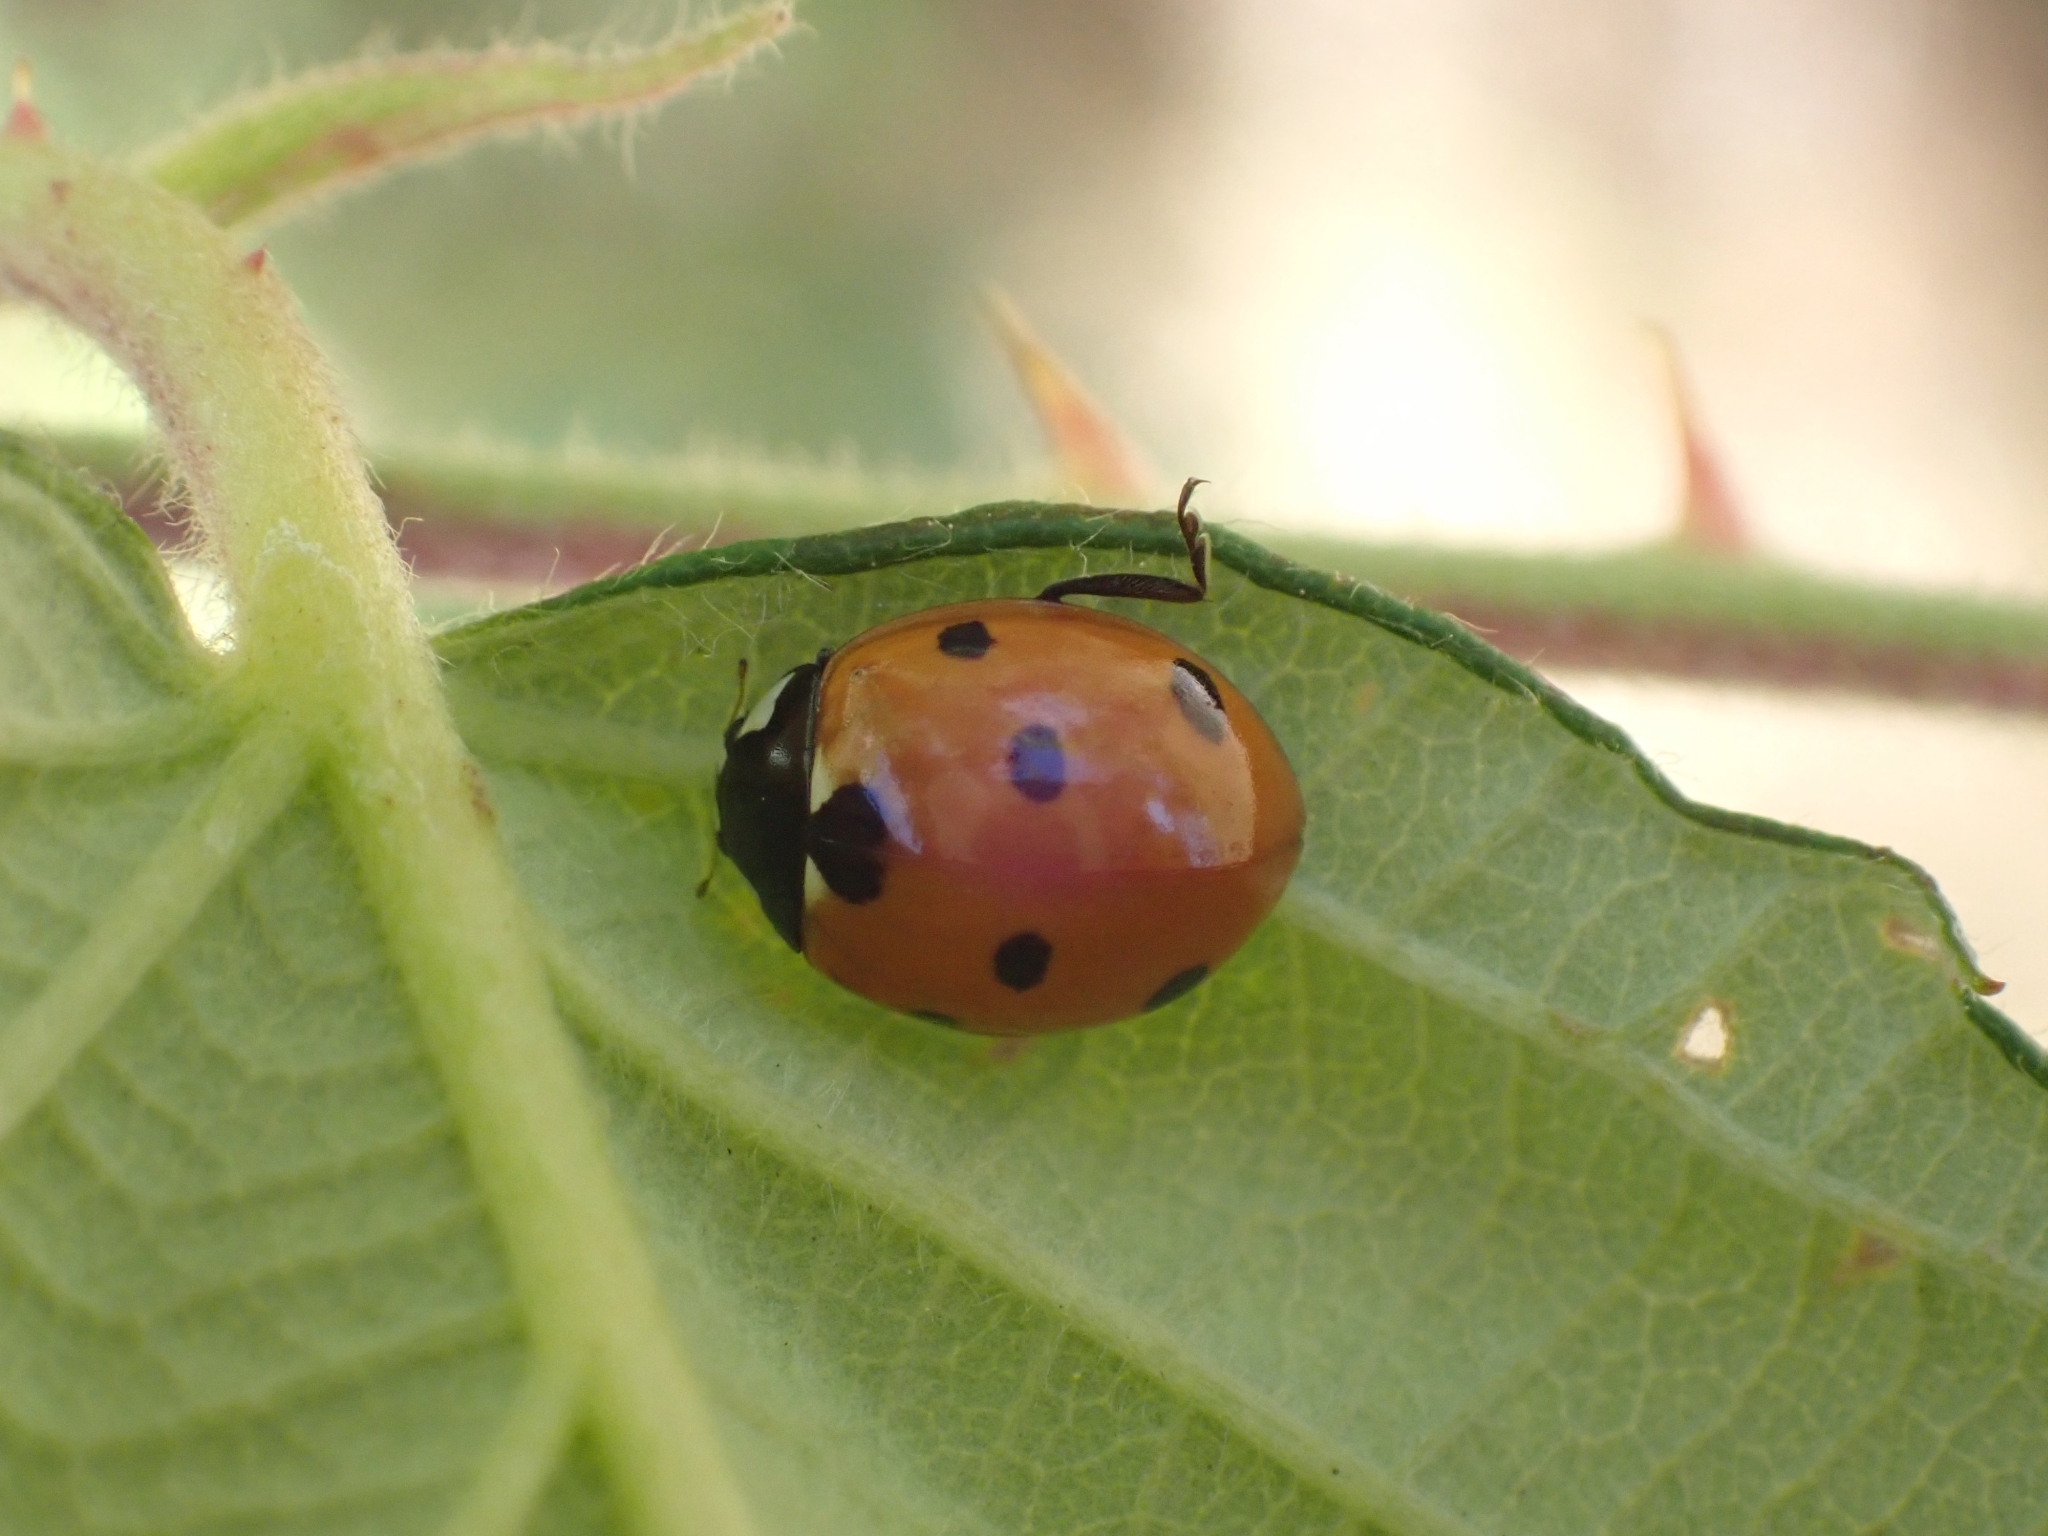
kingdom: Animalia
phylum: Arthropoda
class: Insecta
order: Coleoptera
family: Coccinellidae
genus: Coccinella
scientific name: Coccinella septempunctata
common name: Sevenspotted lady beetle
